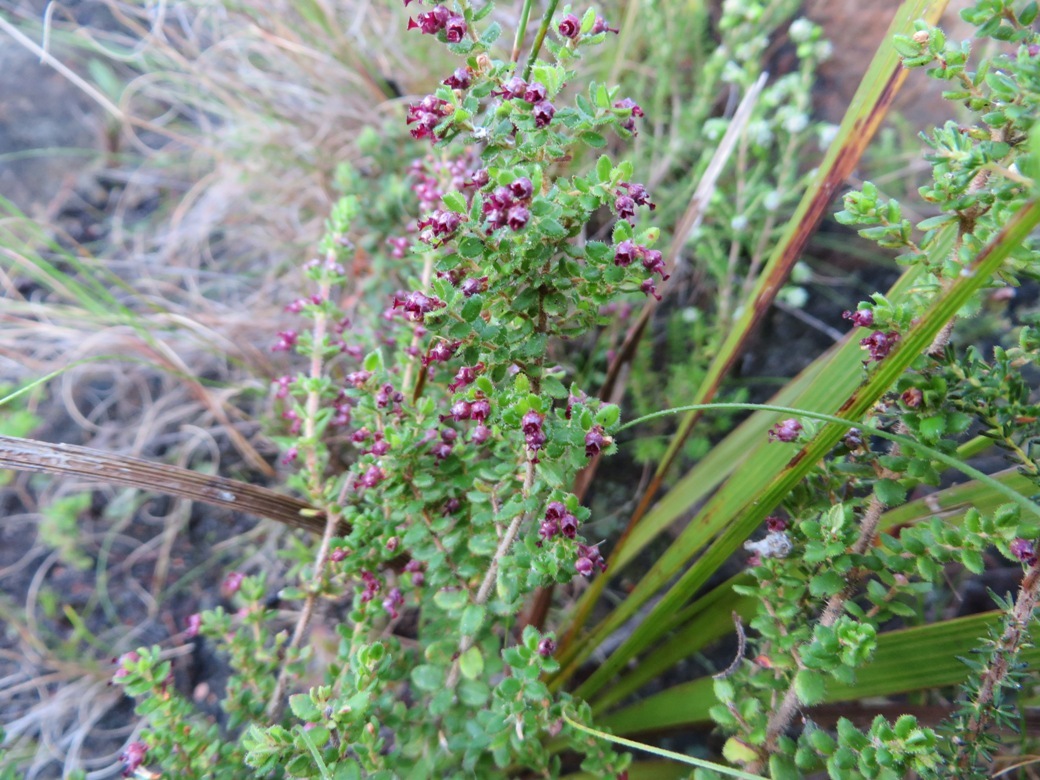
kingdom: Plantae
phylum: Tracheophyta
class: Magnoliopsida
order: Ericales
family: Ericaceae
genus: Erica
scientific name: Erica hispidula
